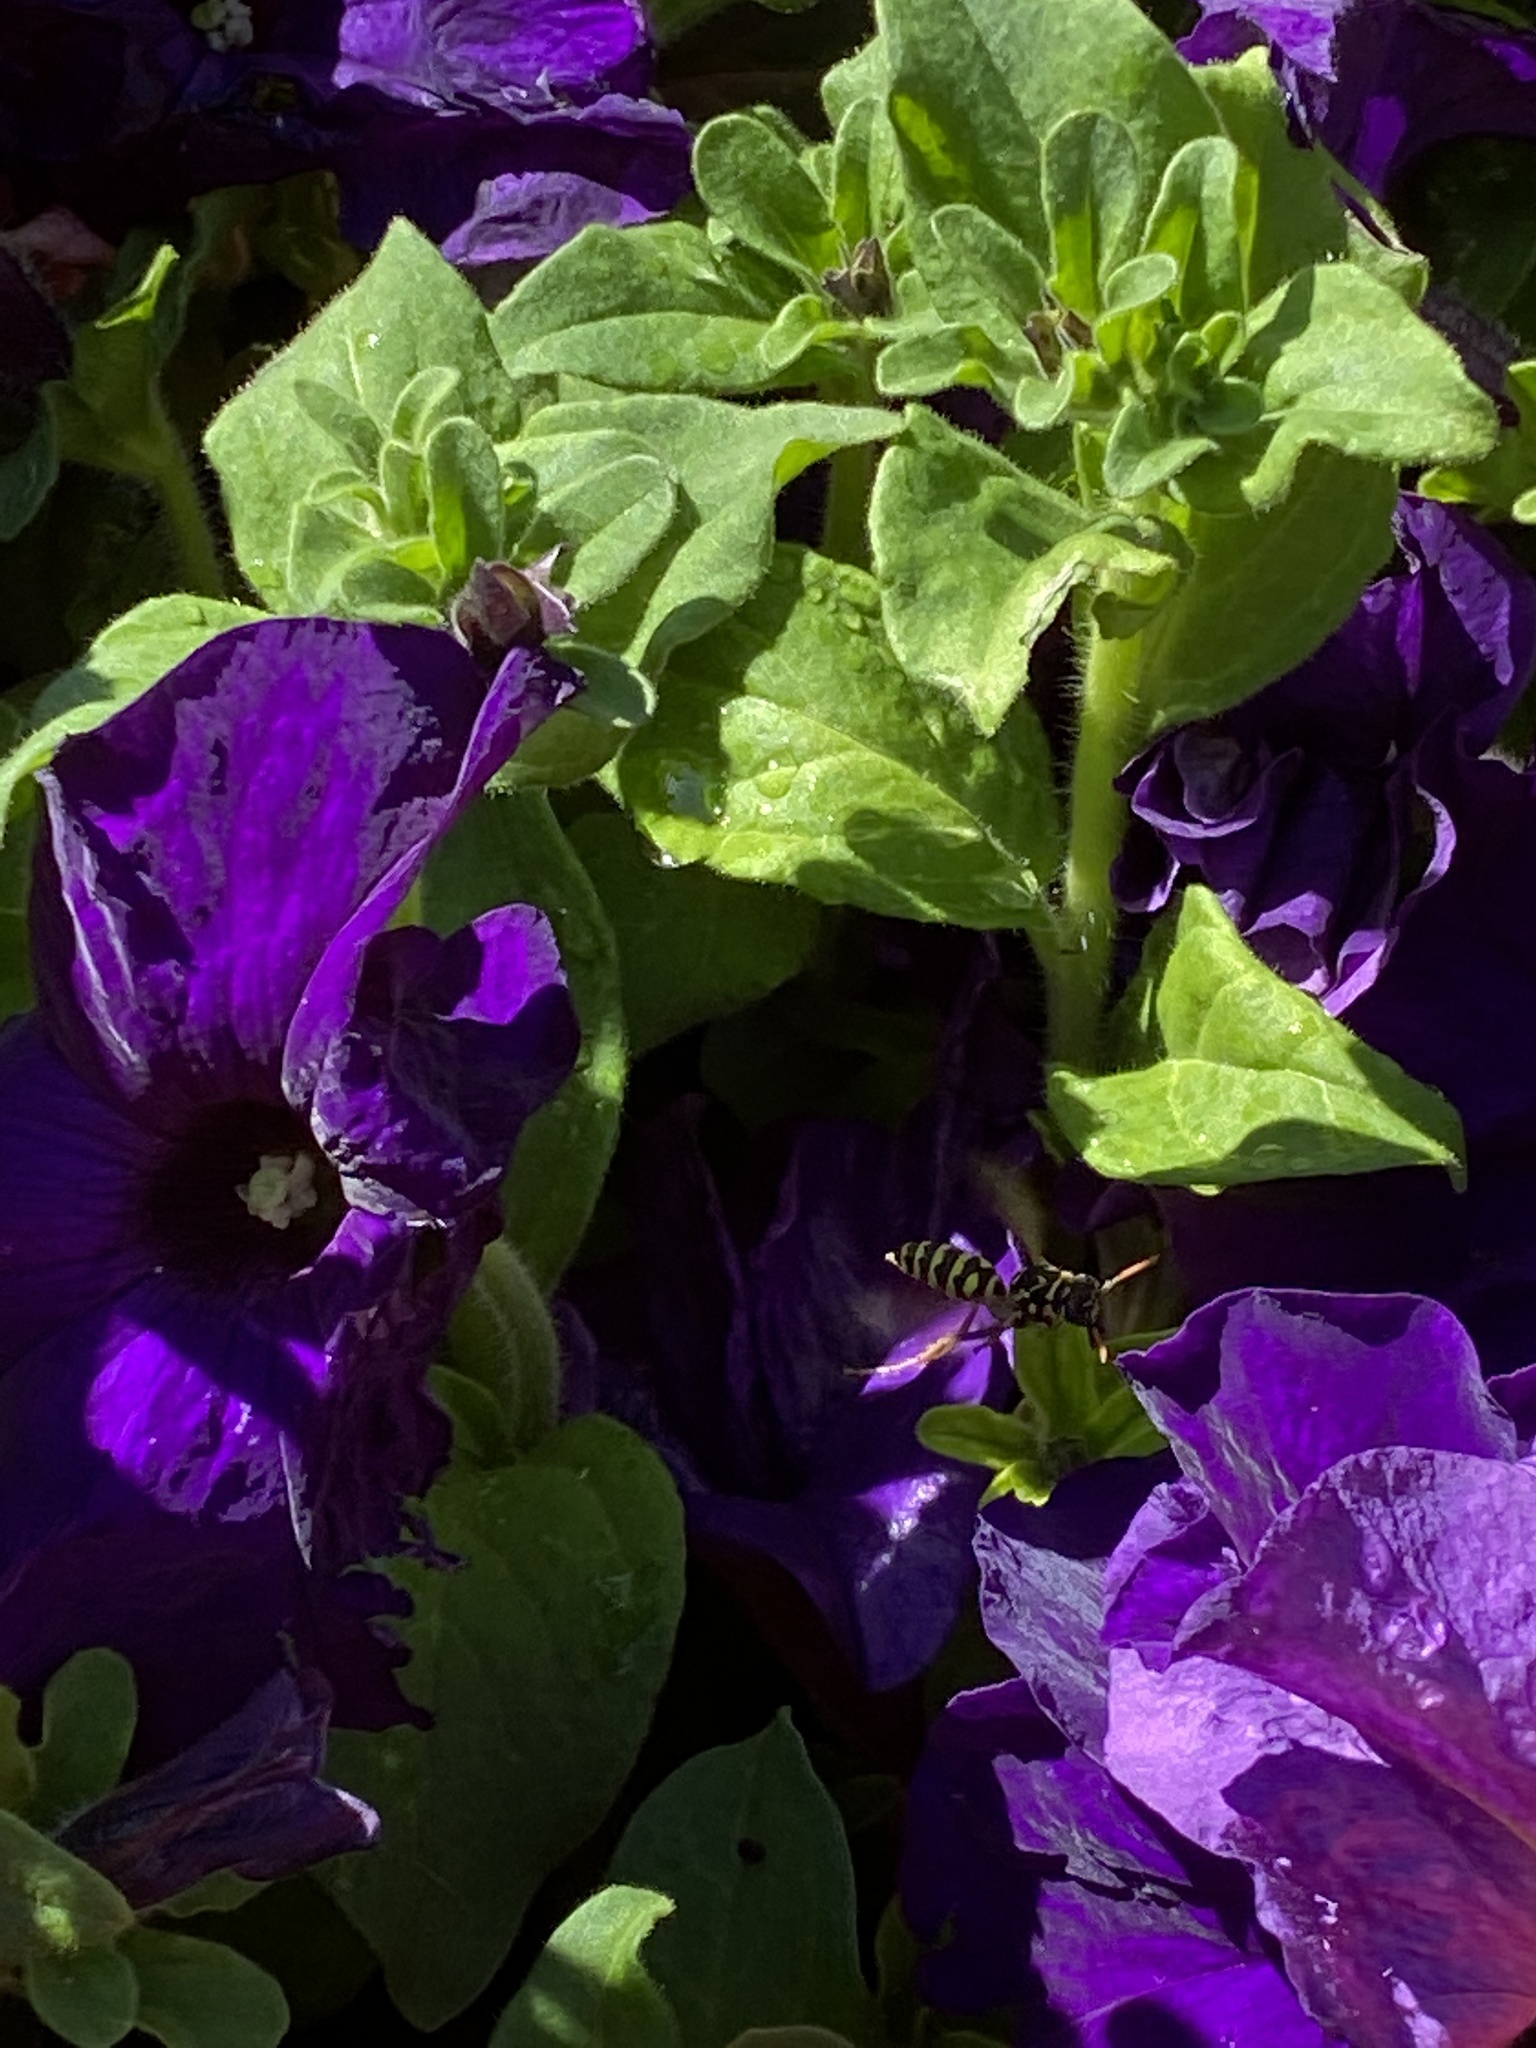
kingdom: Animalia
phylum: Arthropoda
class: Insecta
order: Hymenoptera
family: Eumenidae
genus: Polistes
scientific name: Polistes dominula
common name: Paper wasp
